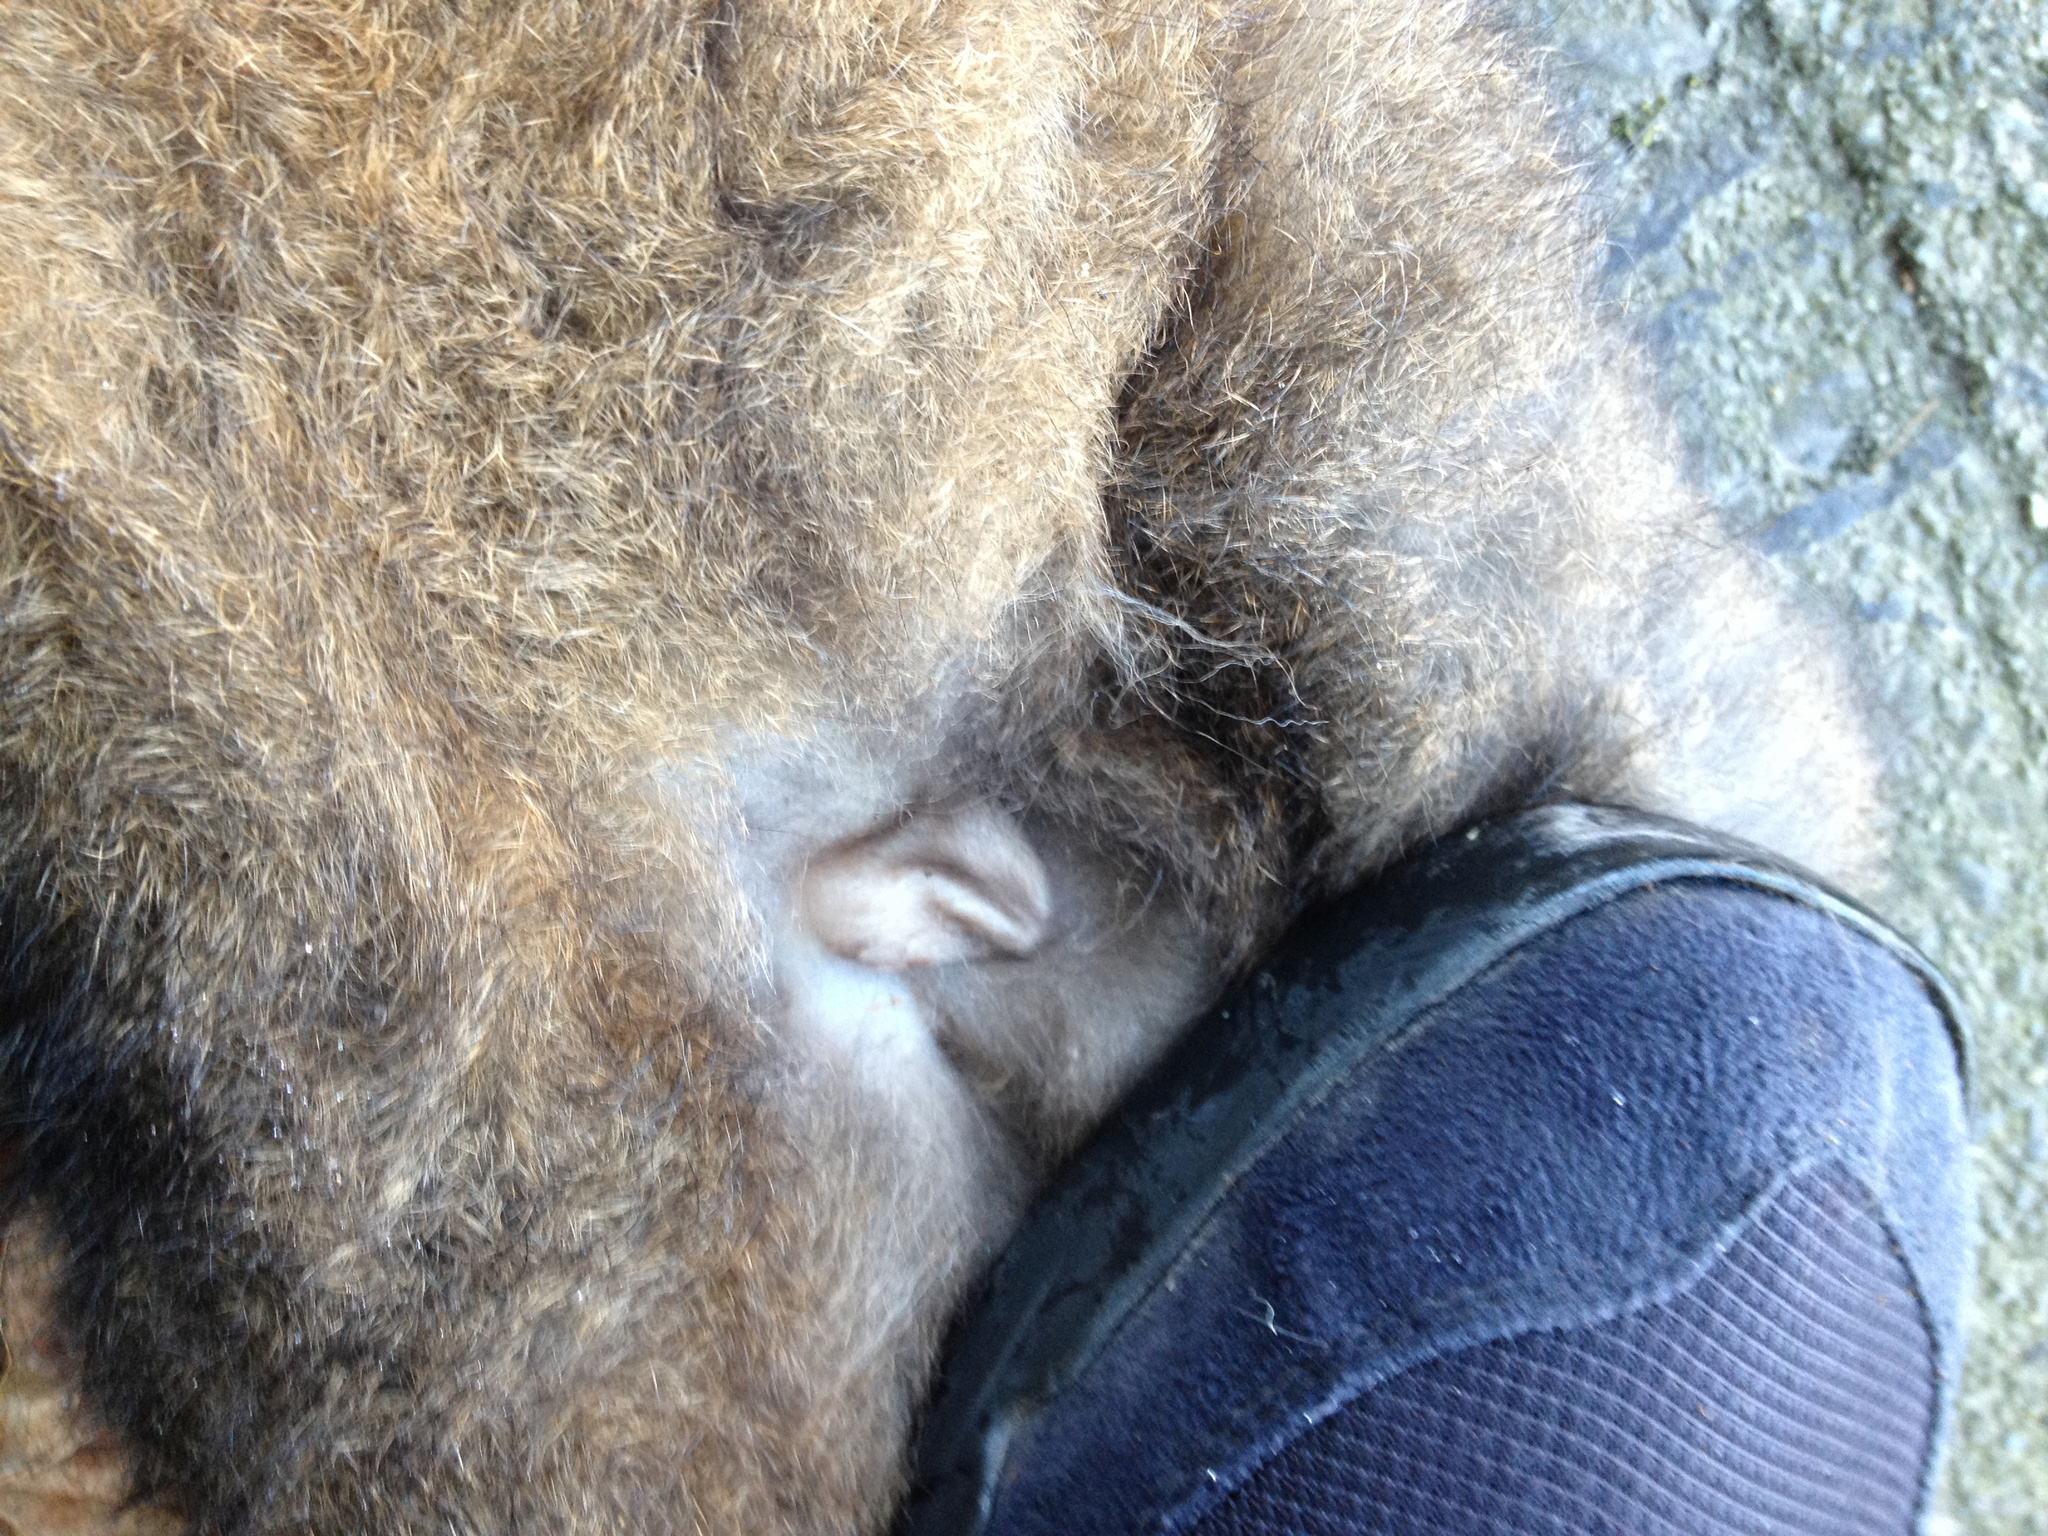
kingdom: Animalia
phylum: Chordata
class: Mammalia
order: Diprotodontia
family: Phalangeridae
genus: Trichosurus
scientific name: Trichosurus vulpecula
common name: Common brushtail
